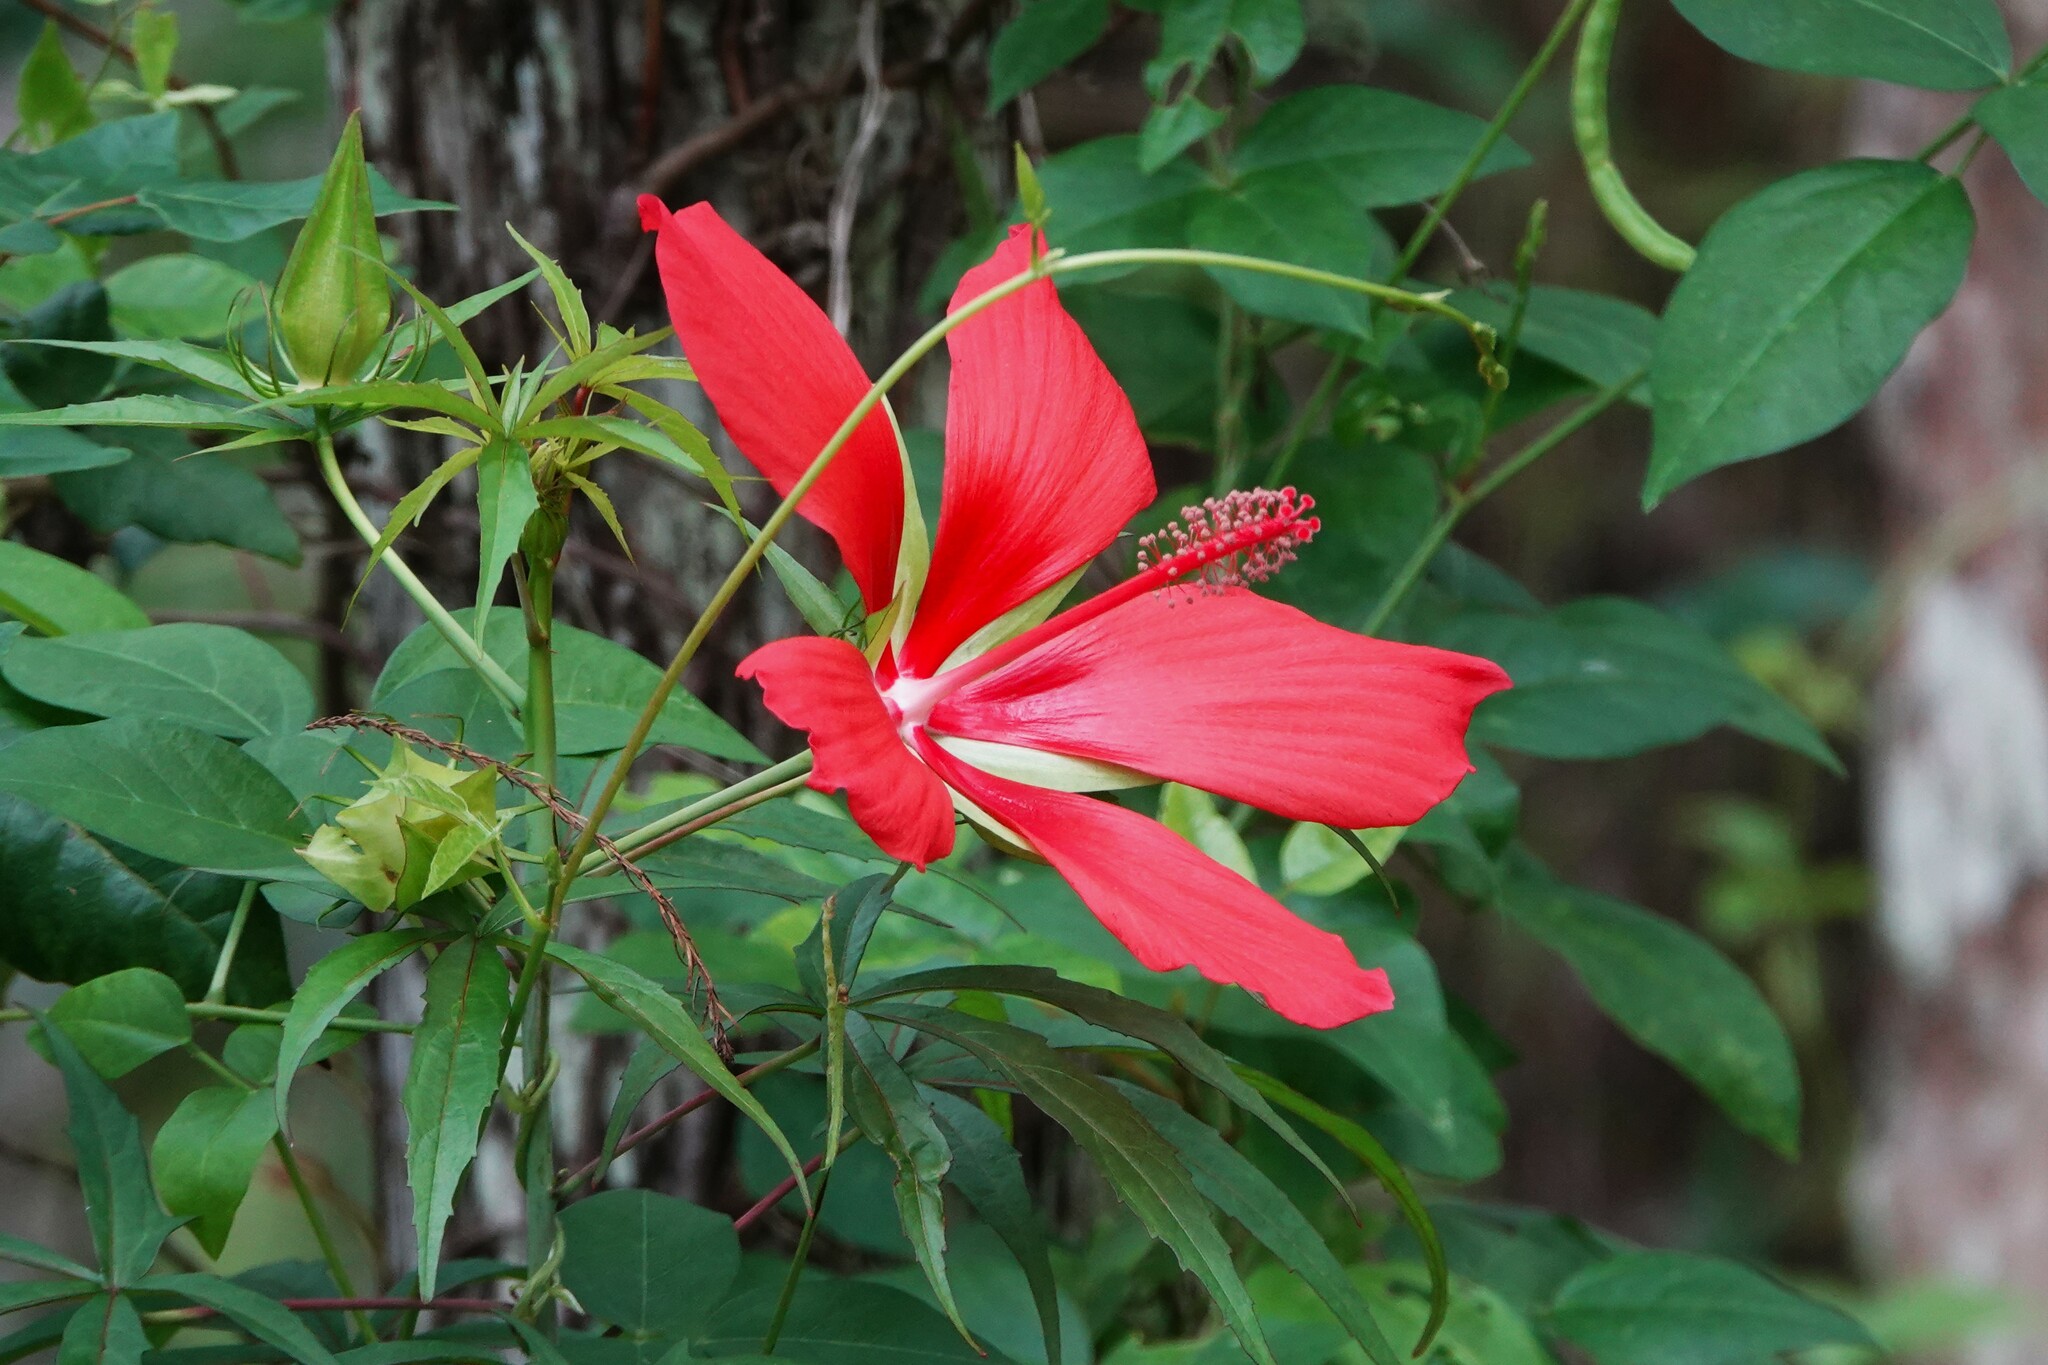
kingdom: Plantae
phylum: Tracheophyta
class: Magnoliopsida
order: Malvales
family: Malvaceae
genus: Hibiscus
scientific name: Hibiscus coccineus
